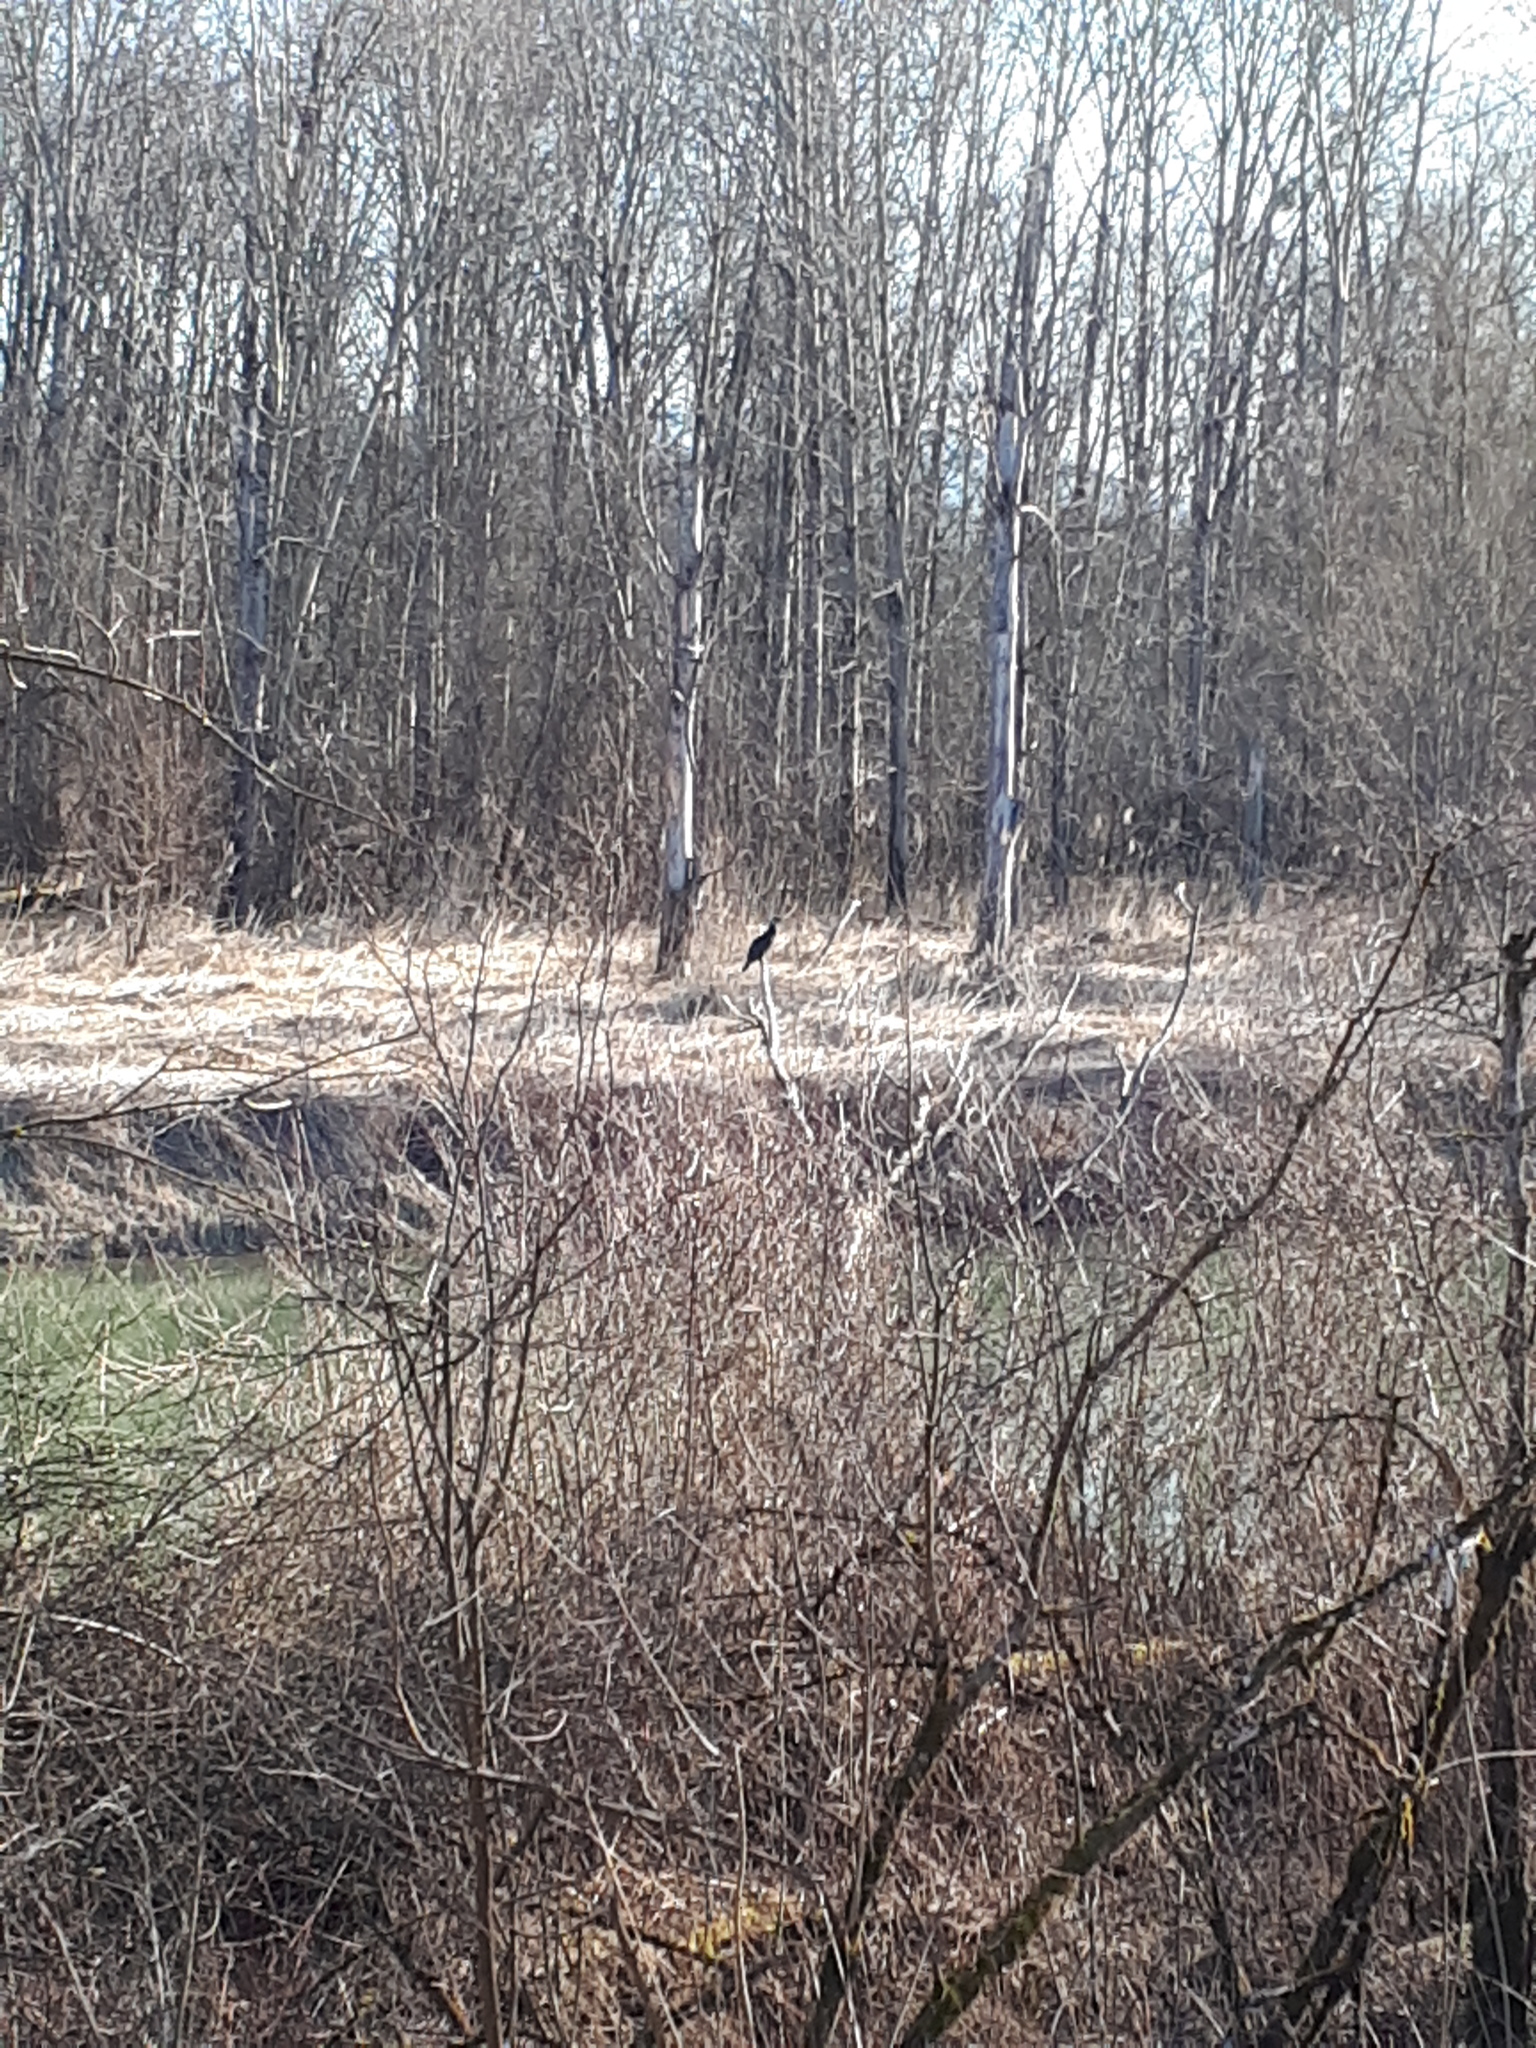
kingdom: Animalia
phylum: Chordata
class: Aves
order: Suliformes
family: Phalacrocoracidae
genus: Phalacrocorax
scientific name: Phalacrocorax carbo
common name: Great cormorant
